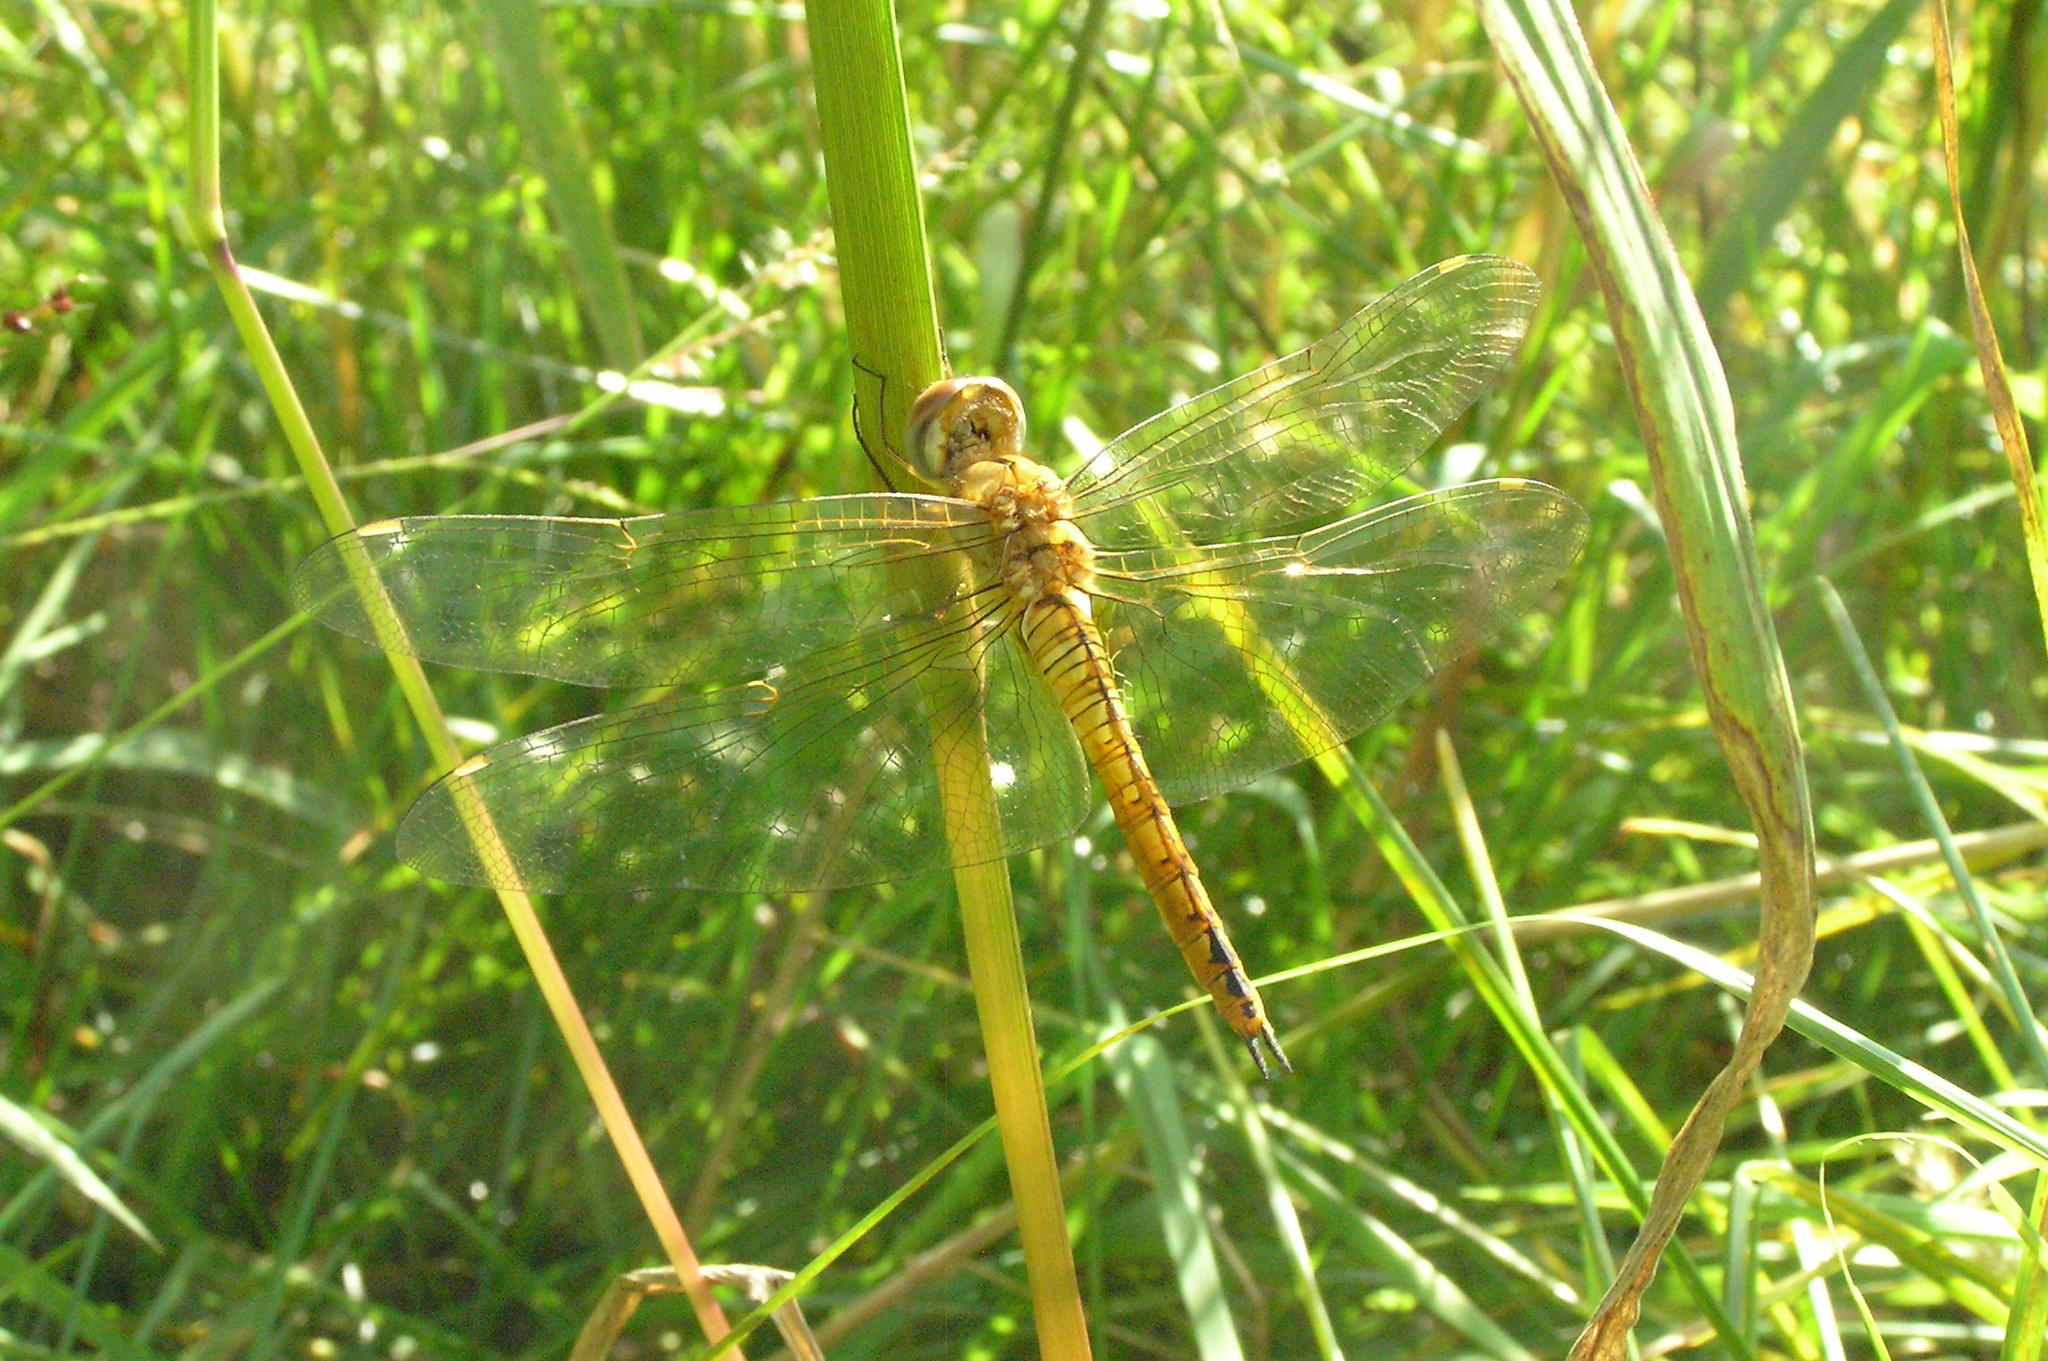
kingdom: Animalia
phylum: Arthropoda
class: Insecta
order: Odonata
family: Libellulidae
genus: Pantala
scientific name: Pantala flavescens
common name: Wandering glider
